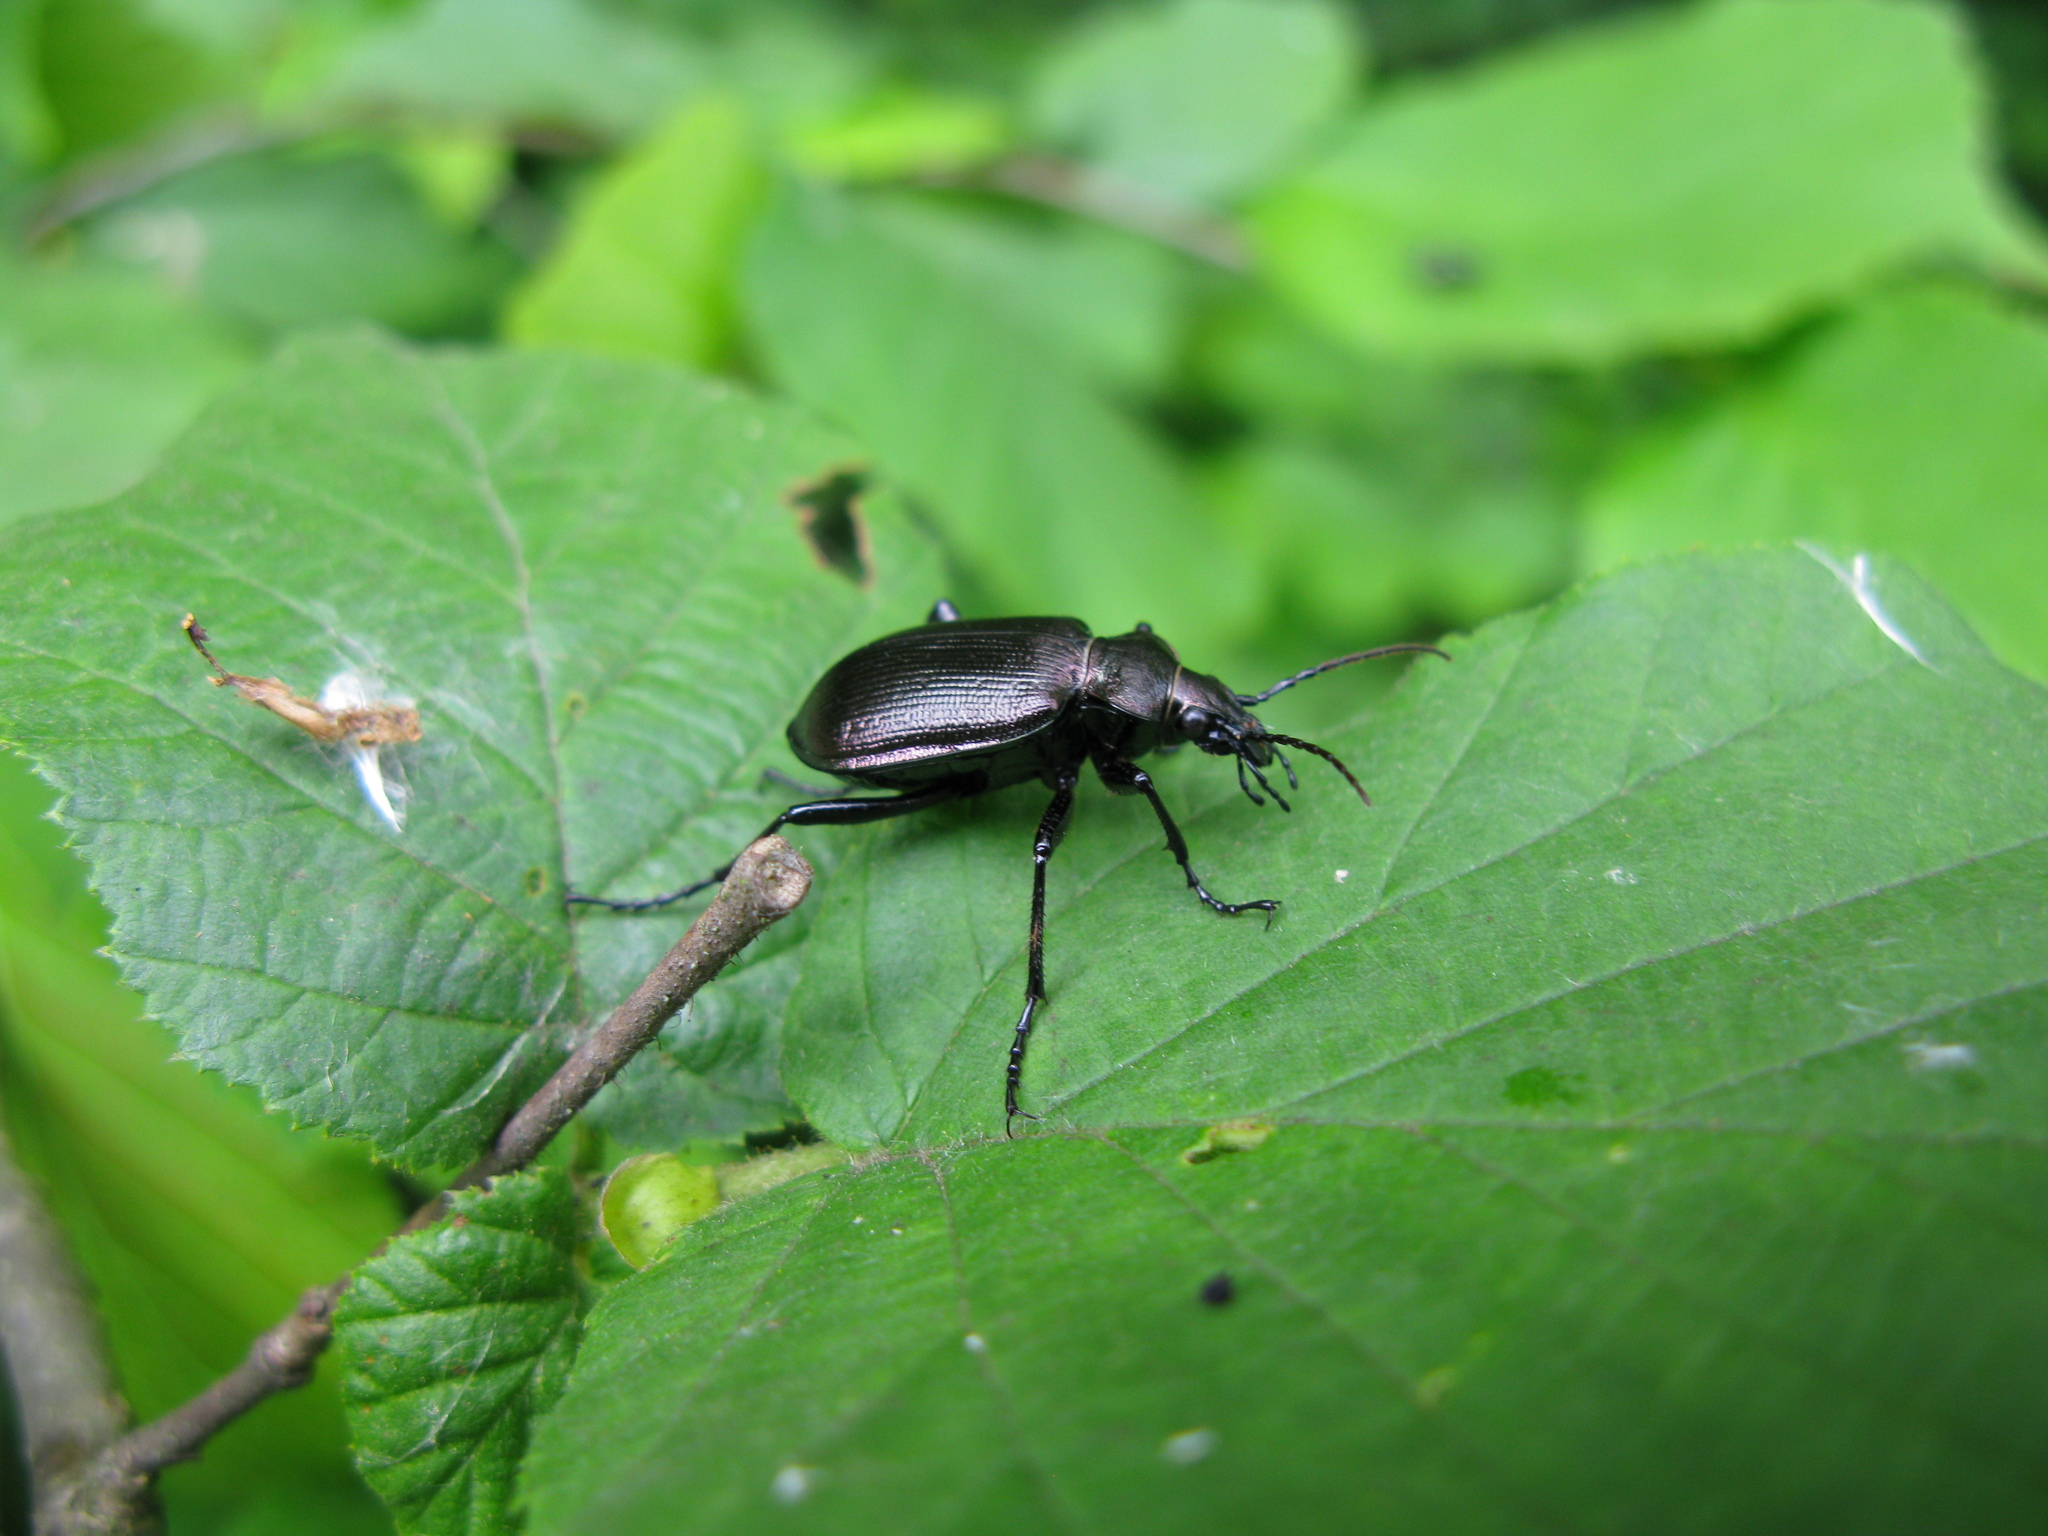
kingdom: Animalia
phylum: Arthropoda
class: Insecta
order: Coleoptera
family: Carabidae
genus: Calosoma
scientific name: Calosoma inquisitor
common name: Caterpillar-hunter
